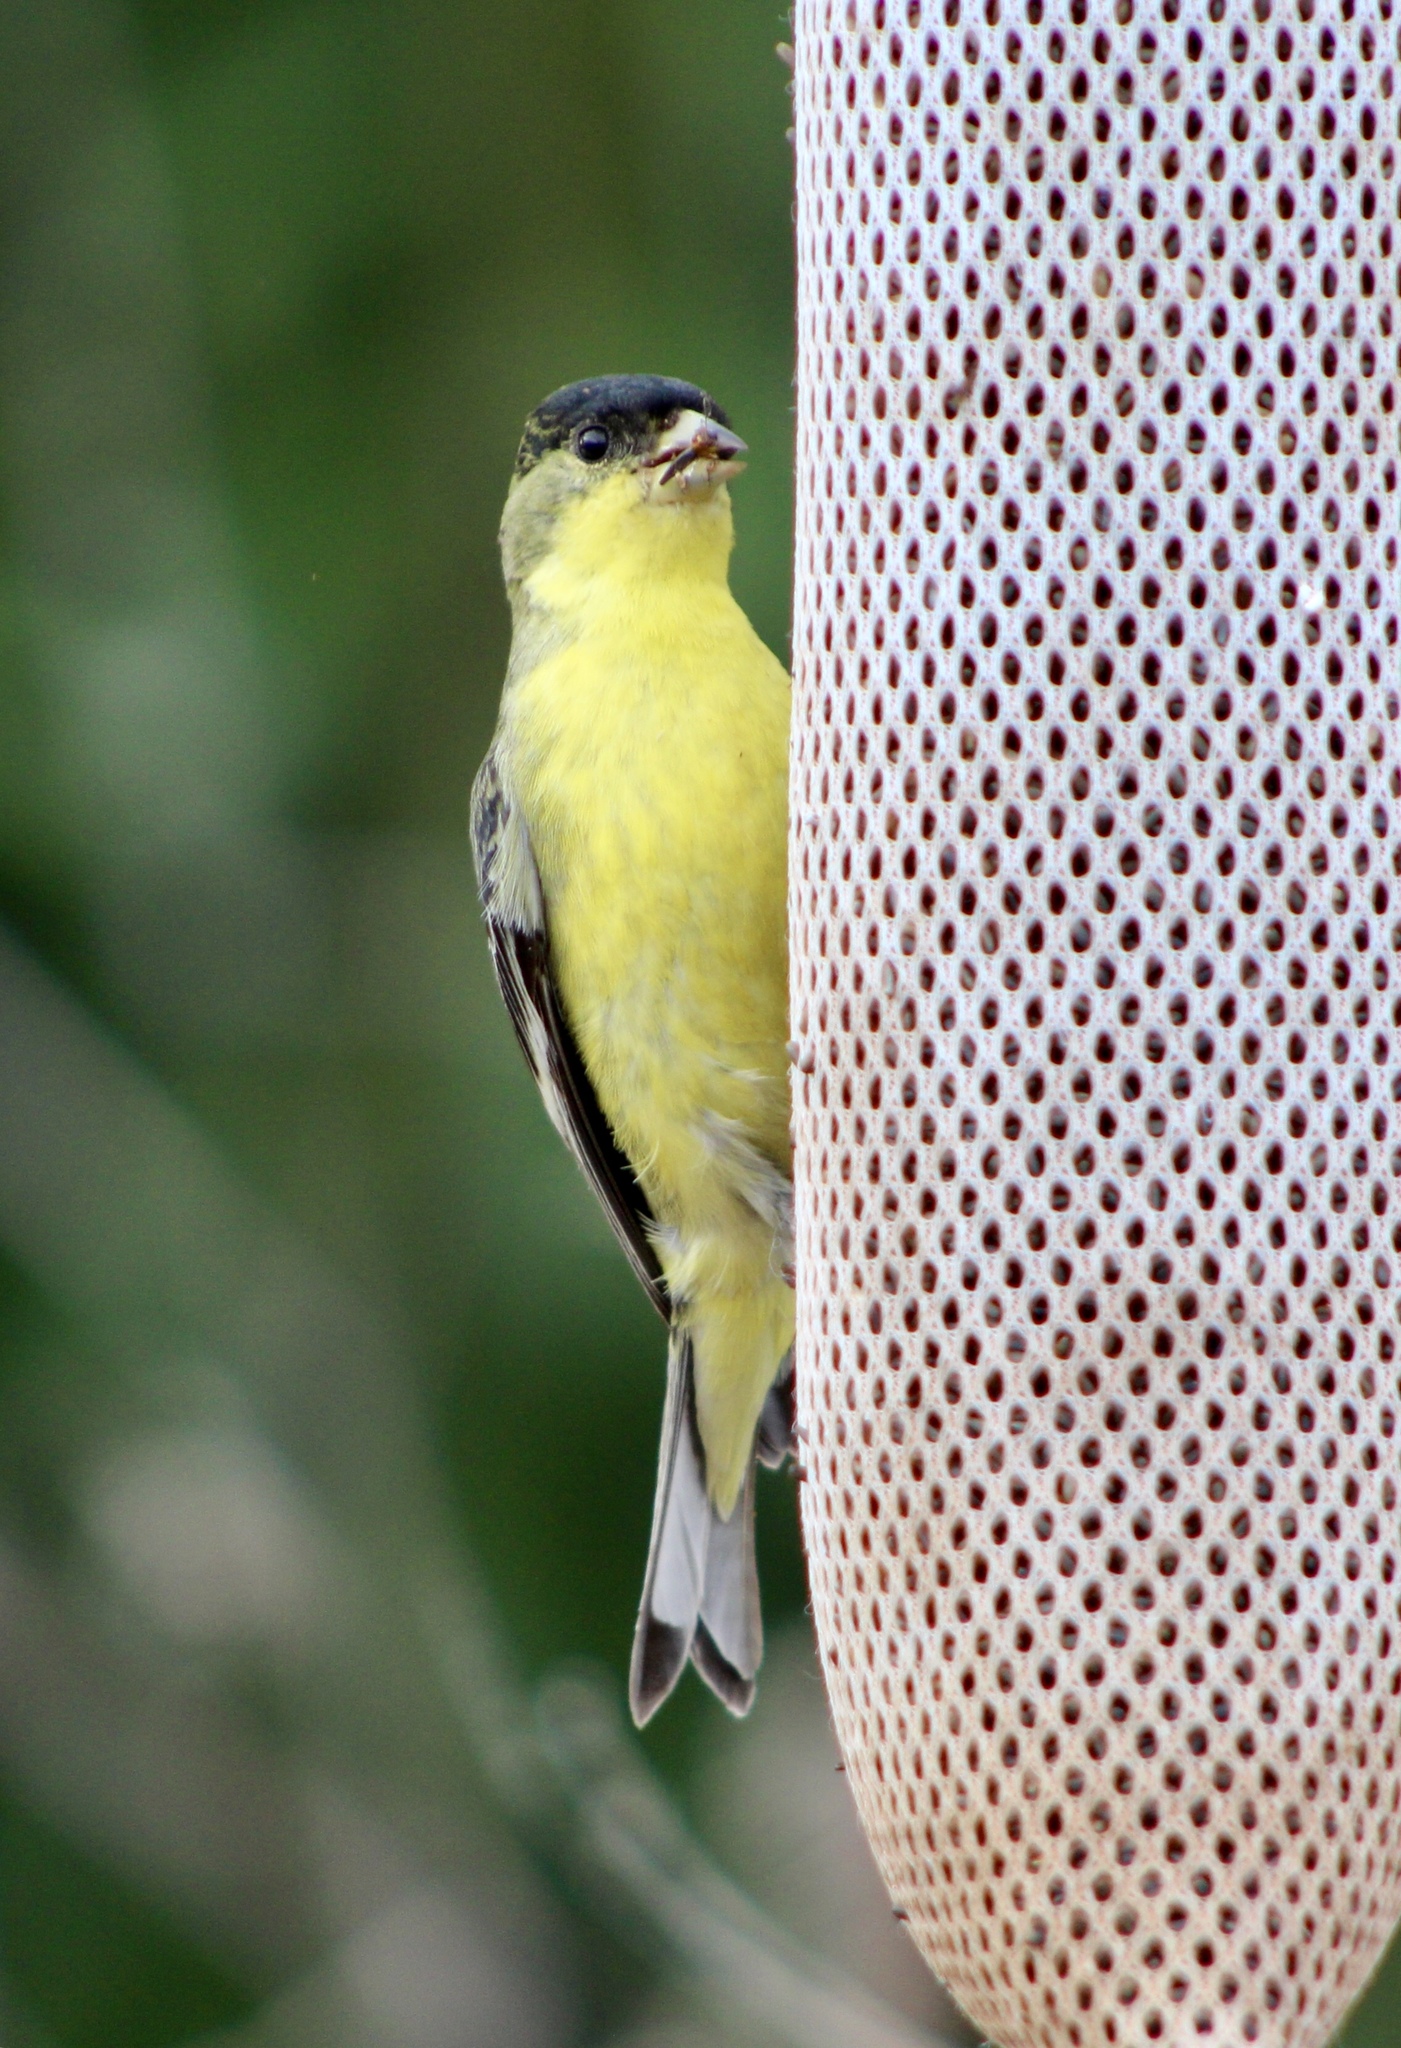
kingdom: Animalia
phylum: Chordata
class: Aves
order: Passeriformes
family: Fringillidae
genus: Spinus
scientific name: Spinus psaltria
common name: Lesser goldfinch
